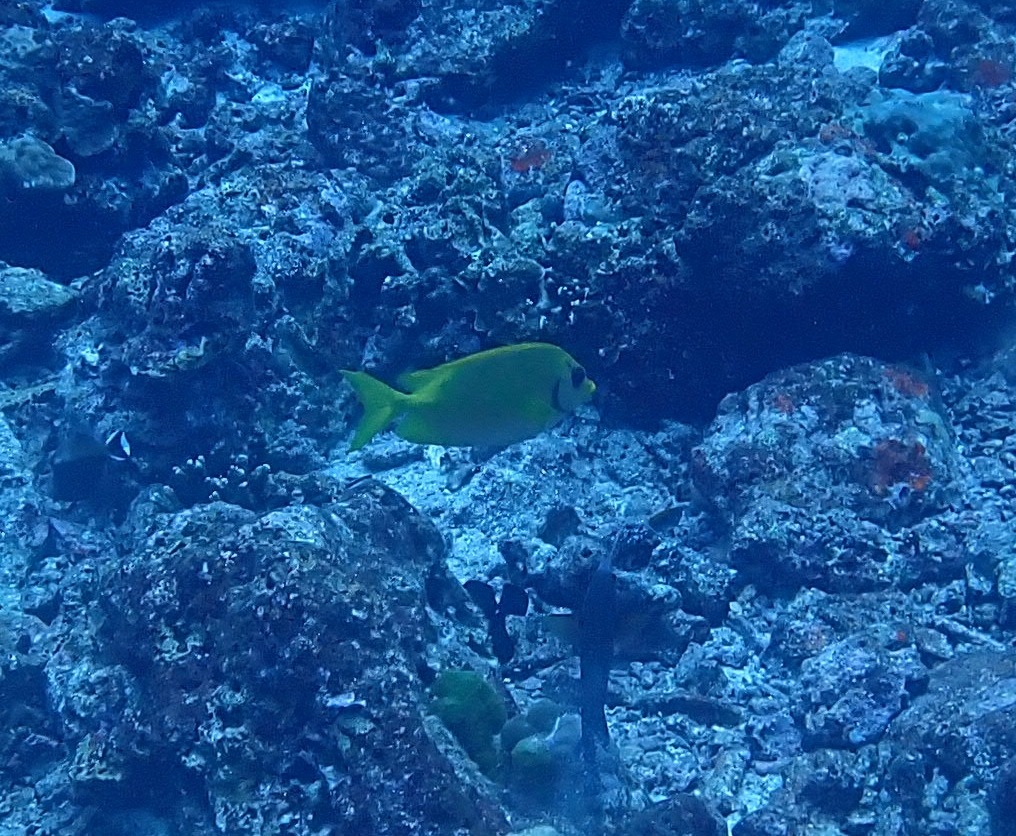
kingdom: Animalia
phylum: Chordata
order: Perciformes
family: Siganidae
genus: Siganus
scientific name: Siganus corallinus
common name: Coral rabbitfish
